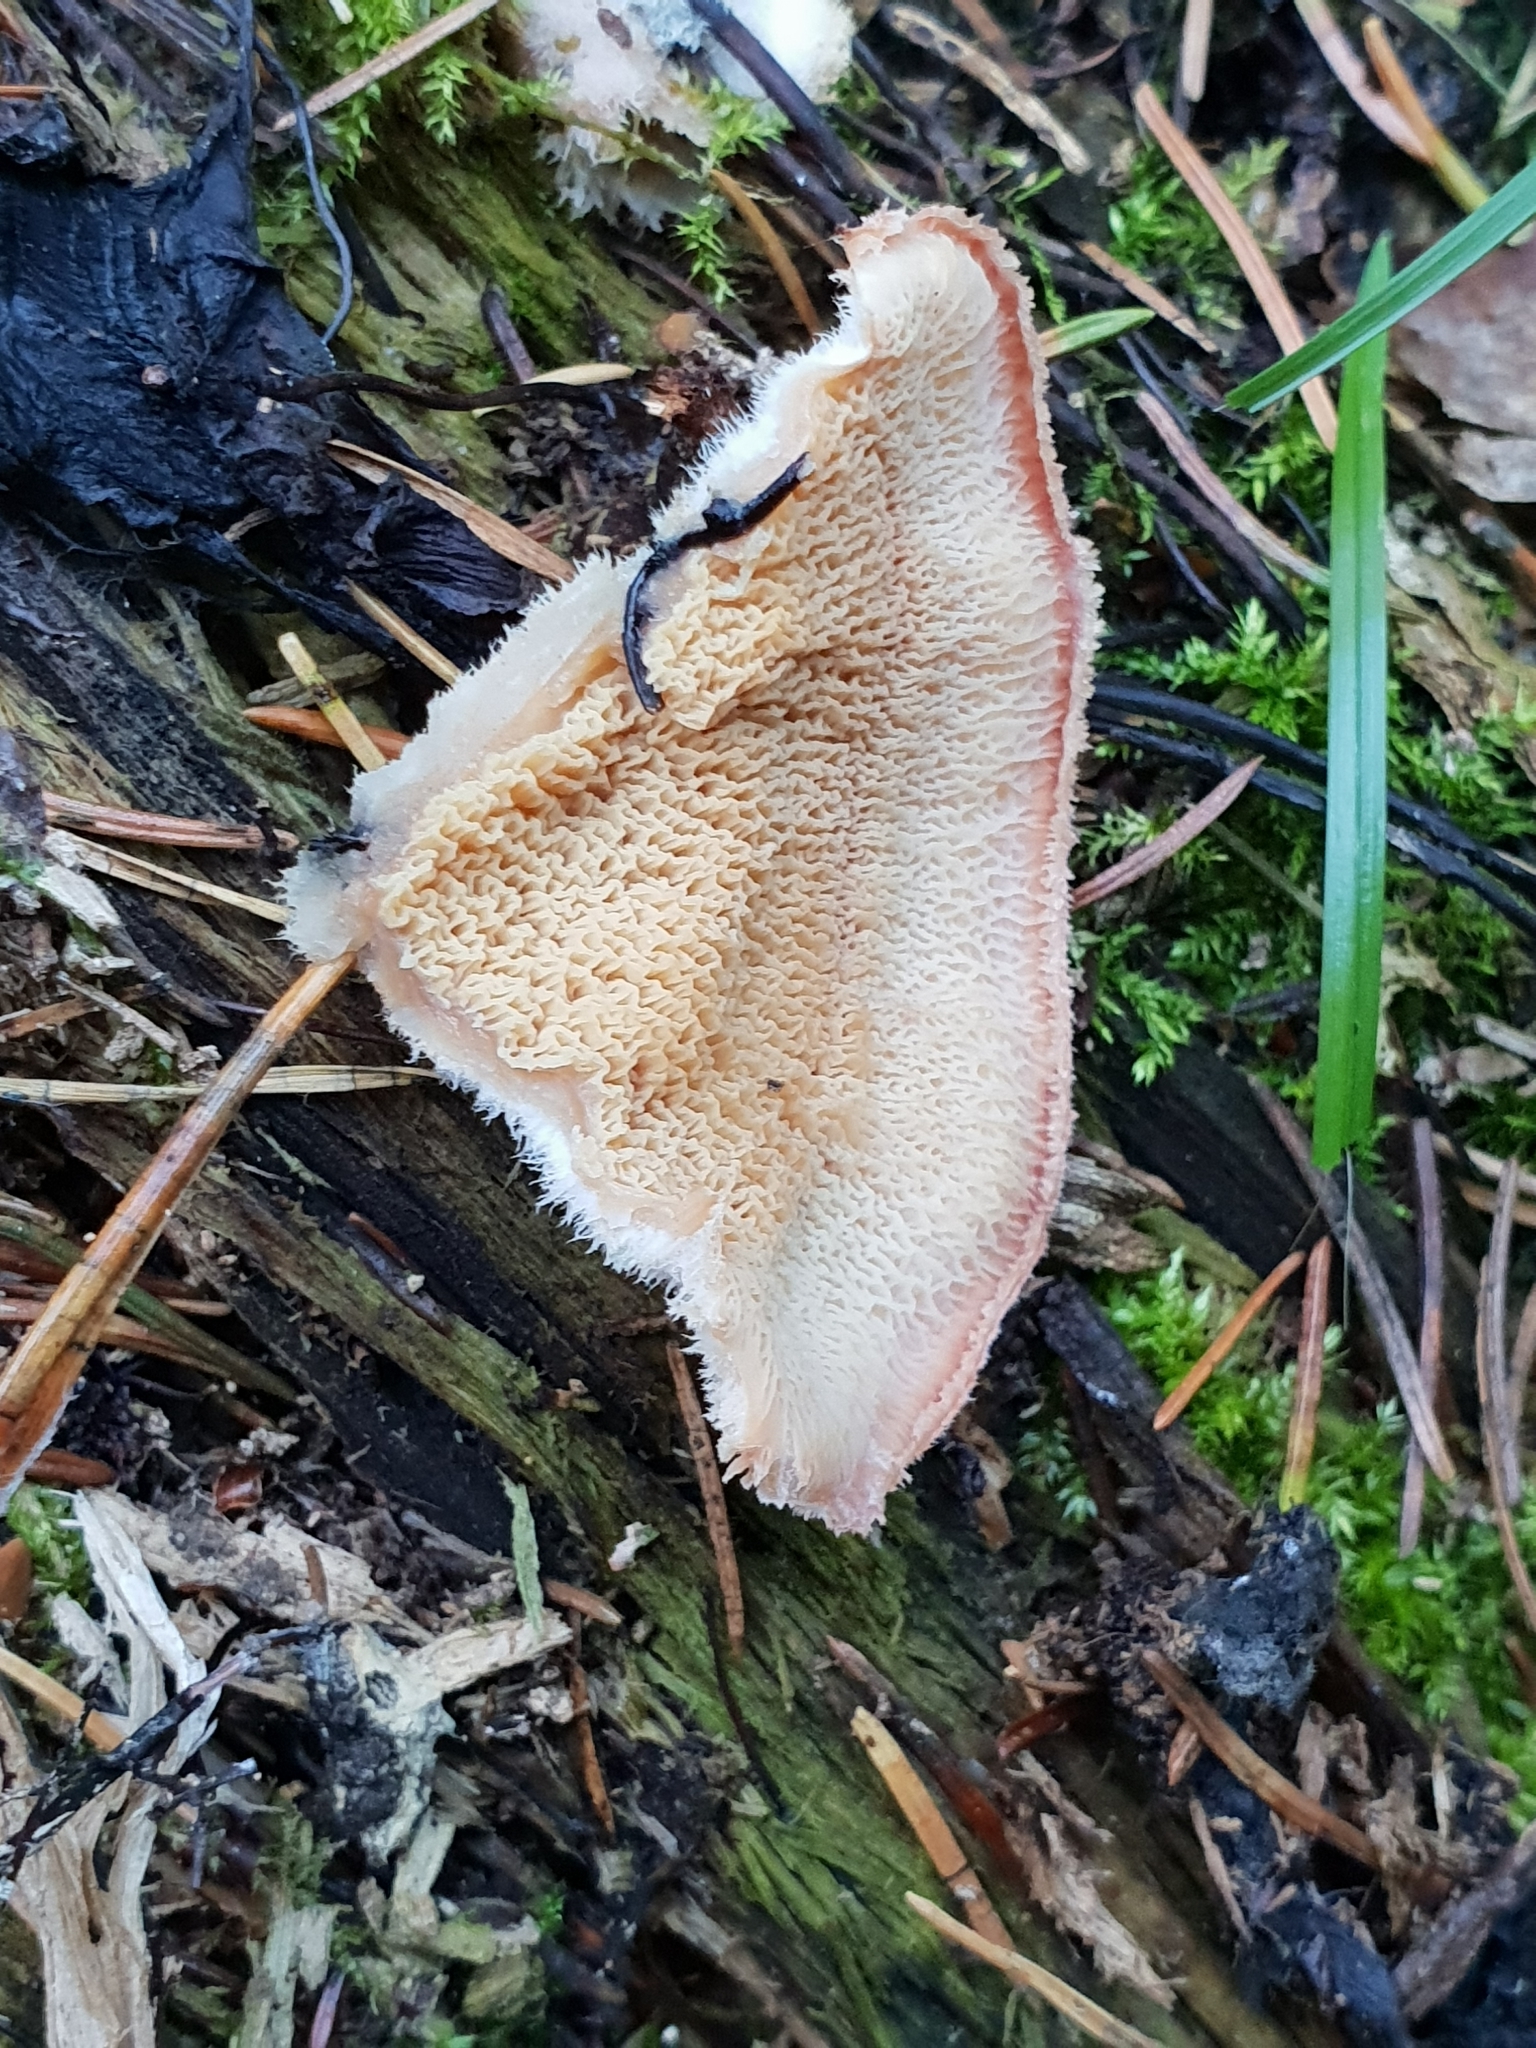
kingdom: Fungi
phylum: Basidiomycota
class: Agaricomycetes
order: Polyporales
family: Meruliaceae
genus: Phlebia
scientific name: Phlebia tremellosa
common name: Jelly rot
